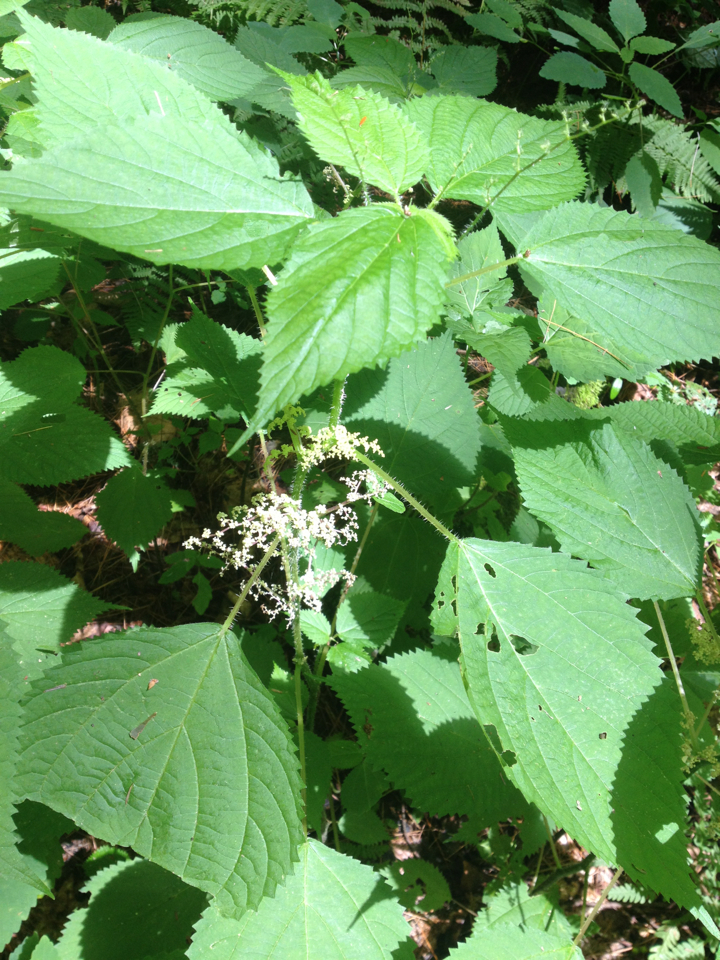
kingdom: Plantae
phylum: Tracheophyta
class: Magnoliopsida
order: Rosales
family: Urticaceae
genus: Laportea
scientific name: Laportea canadensis
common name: Canada nettle
